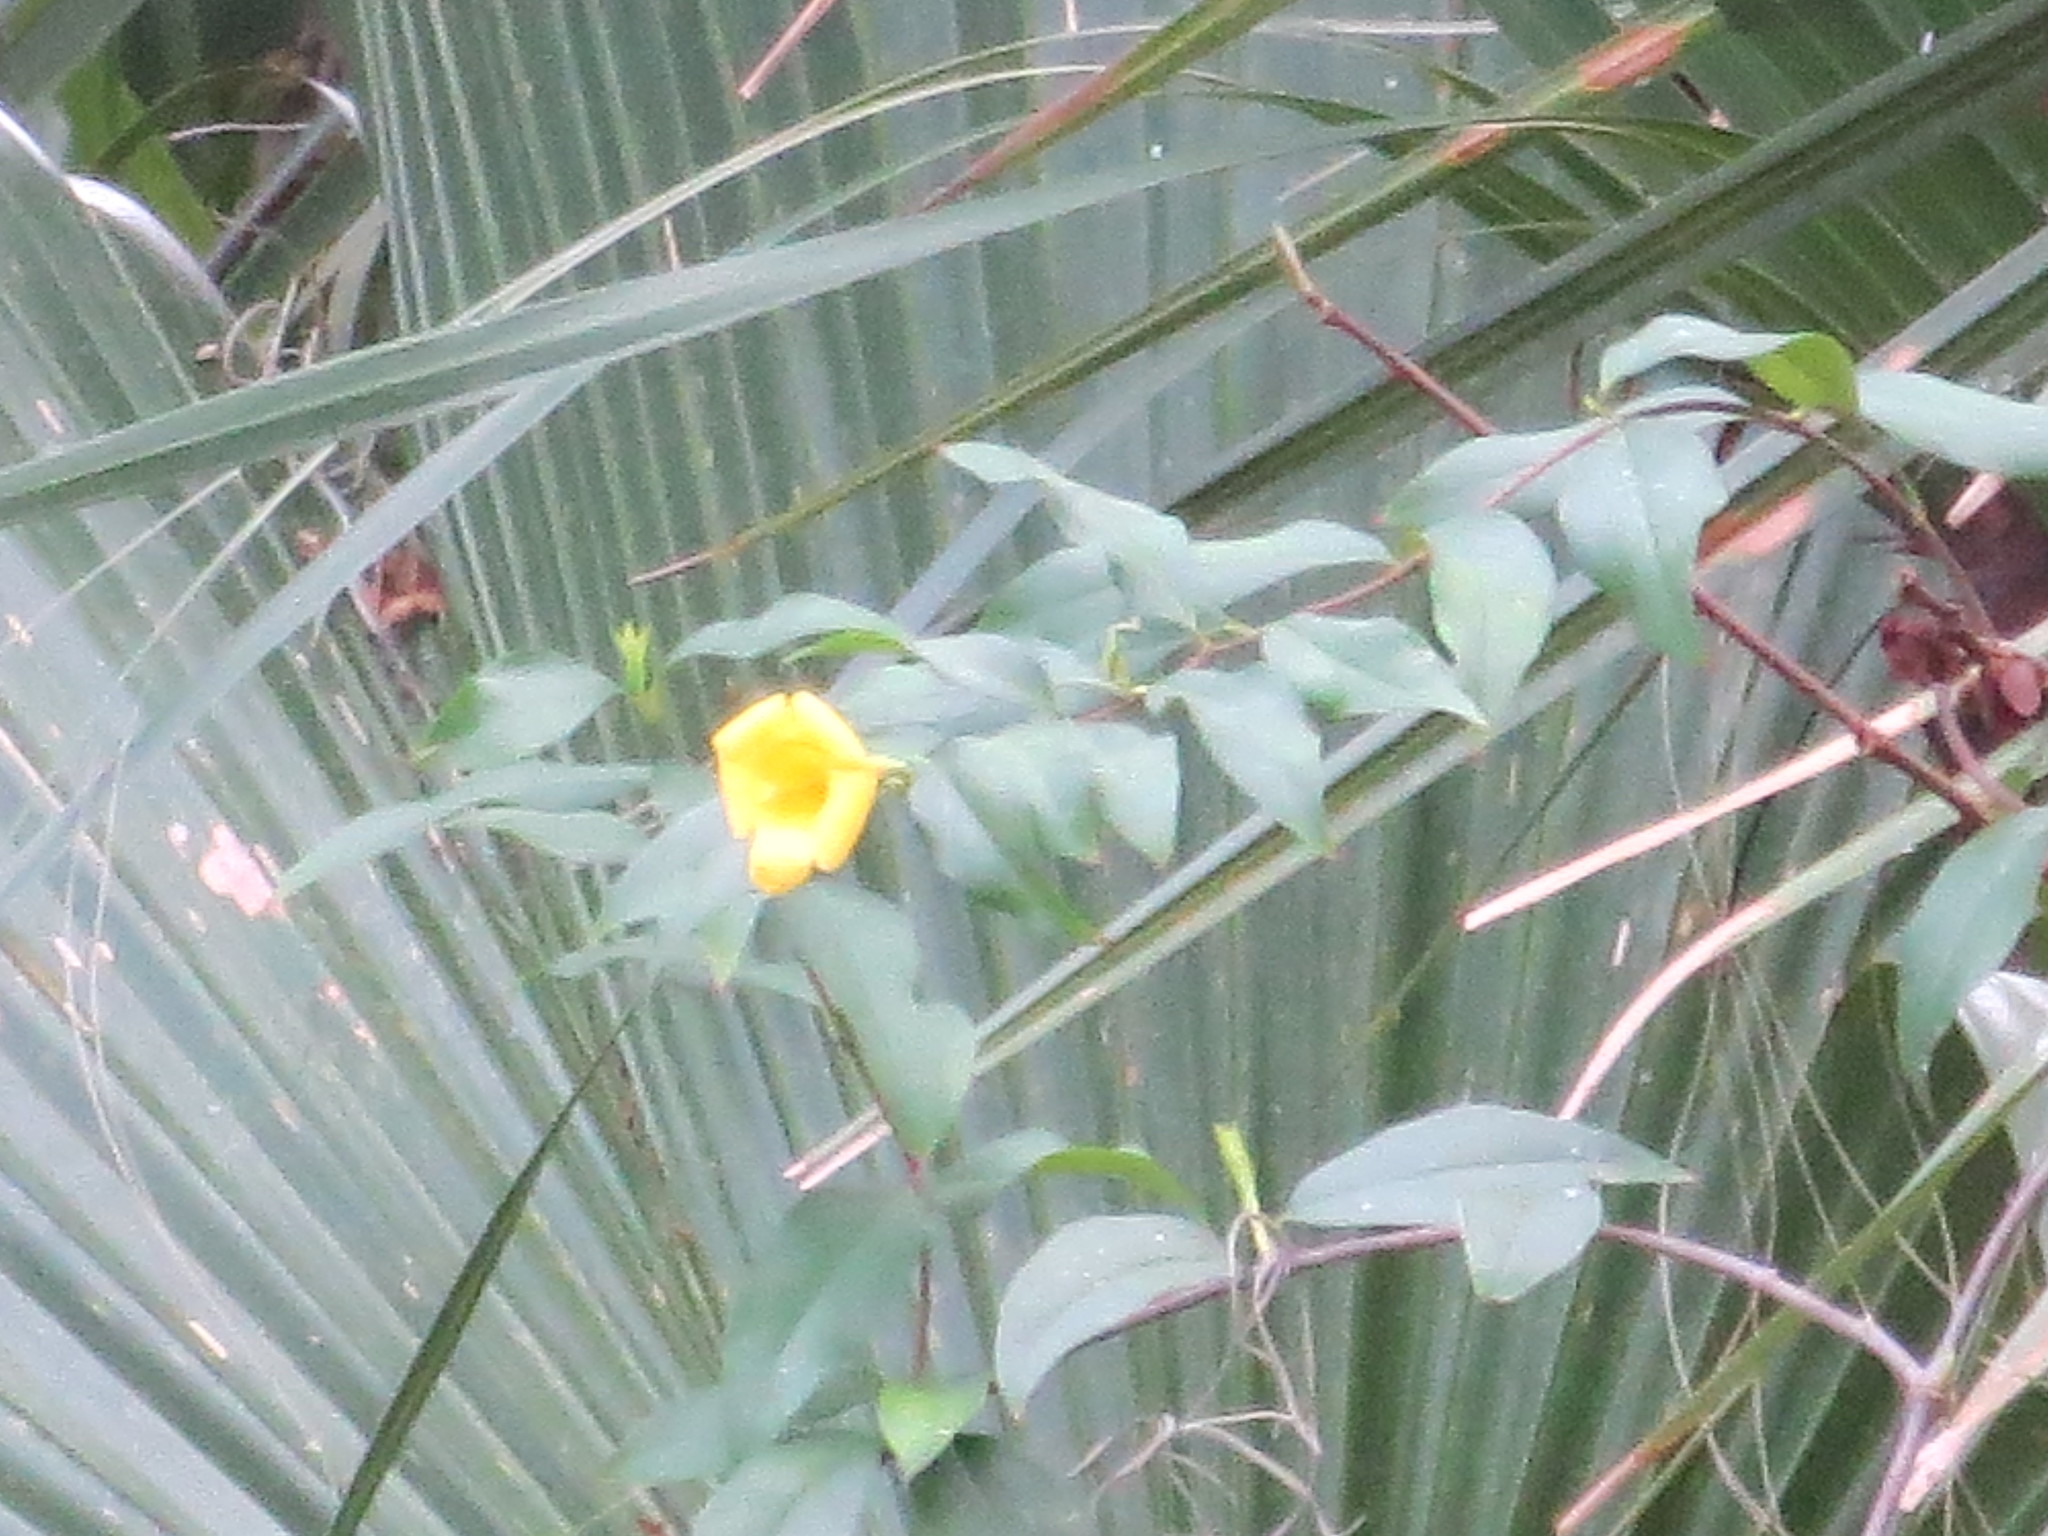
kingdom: Plantae
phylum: Tracheophyta
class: Magnoliopsida
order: Gentianales
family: Gelsemiaceae
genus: Gelsemium
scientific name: Gelsemium sempervirens
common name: Carolina-jasmine
